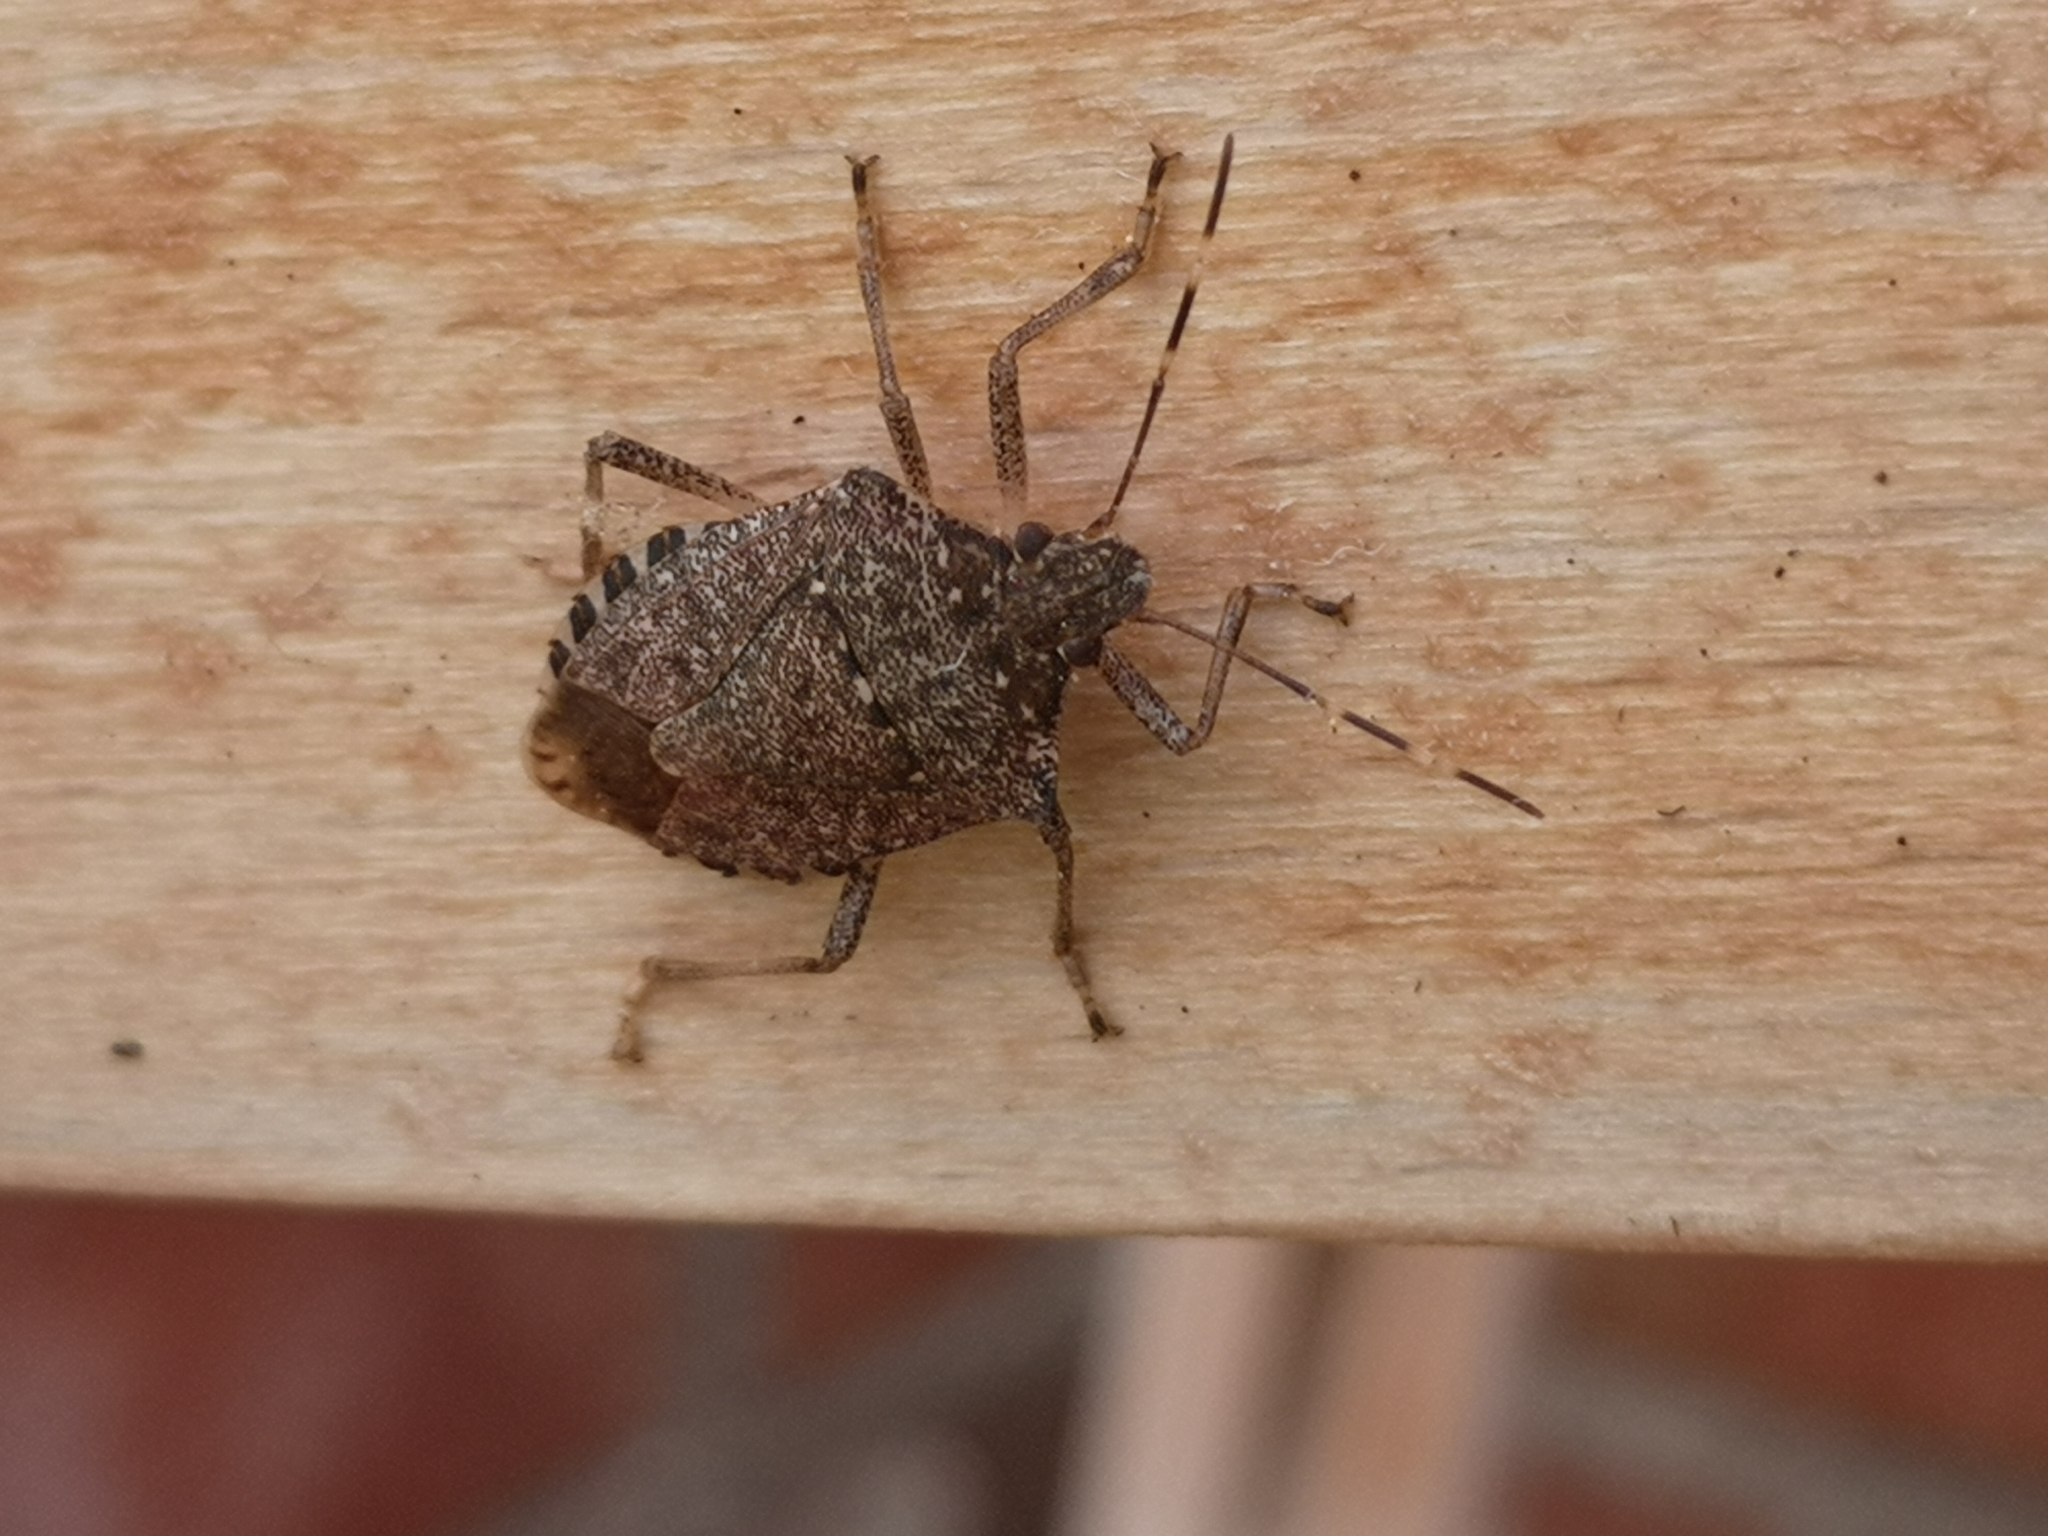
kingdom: Animalia
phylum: Arthropoda
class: Insecta
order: Hemiptera
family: Pentatomidae
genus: Halyomorpha
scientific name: Halyomorpha halys
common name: Brown marmorated stink bug
